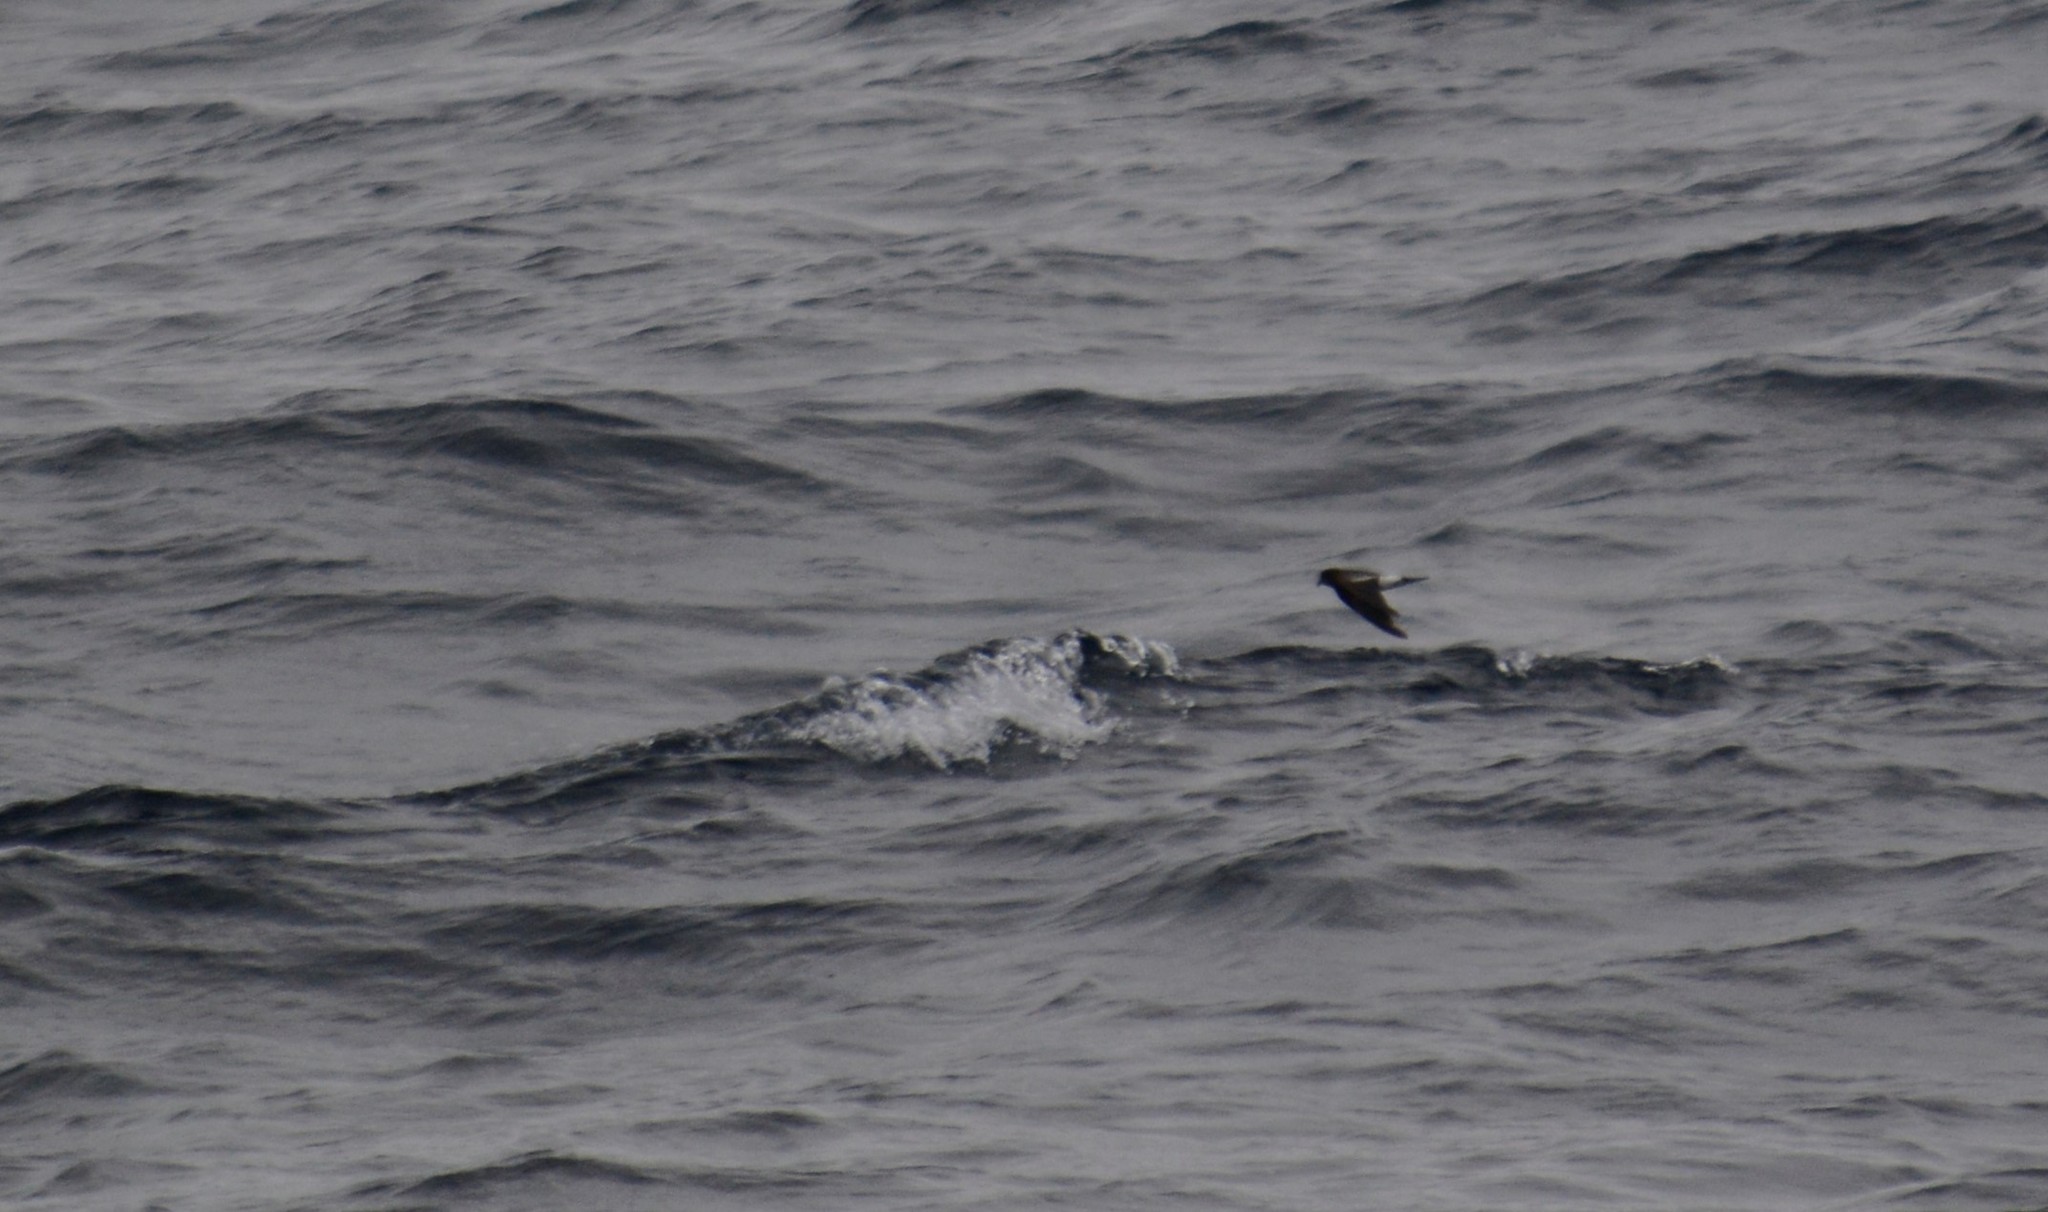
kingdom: Animalia
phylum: Chordata
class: Aves
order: Procellariiformes
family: Hydrobatidae
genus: Oceanites
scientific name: Oceanites oceanicus
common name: Wilson's storm petrel
